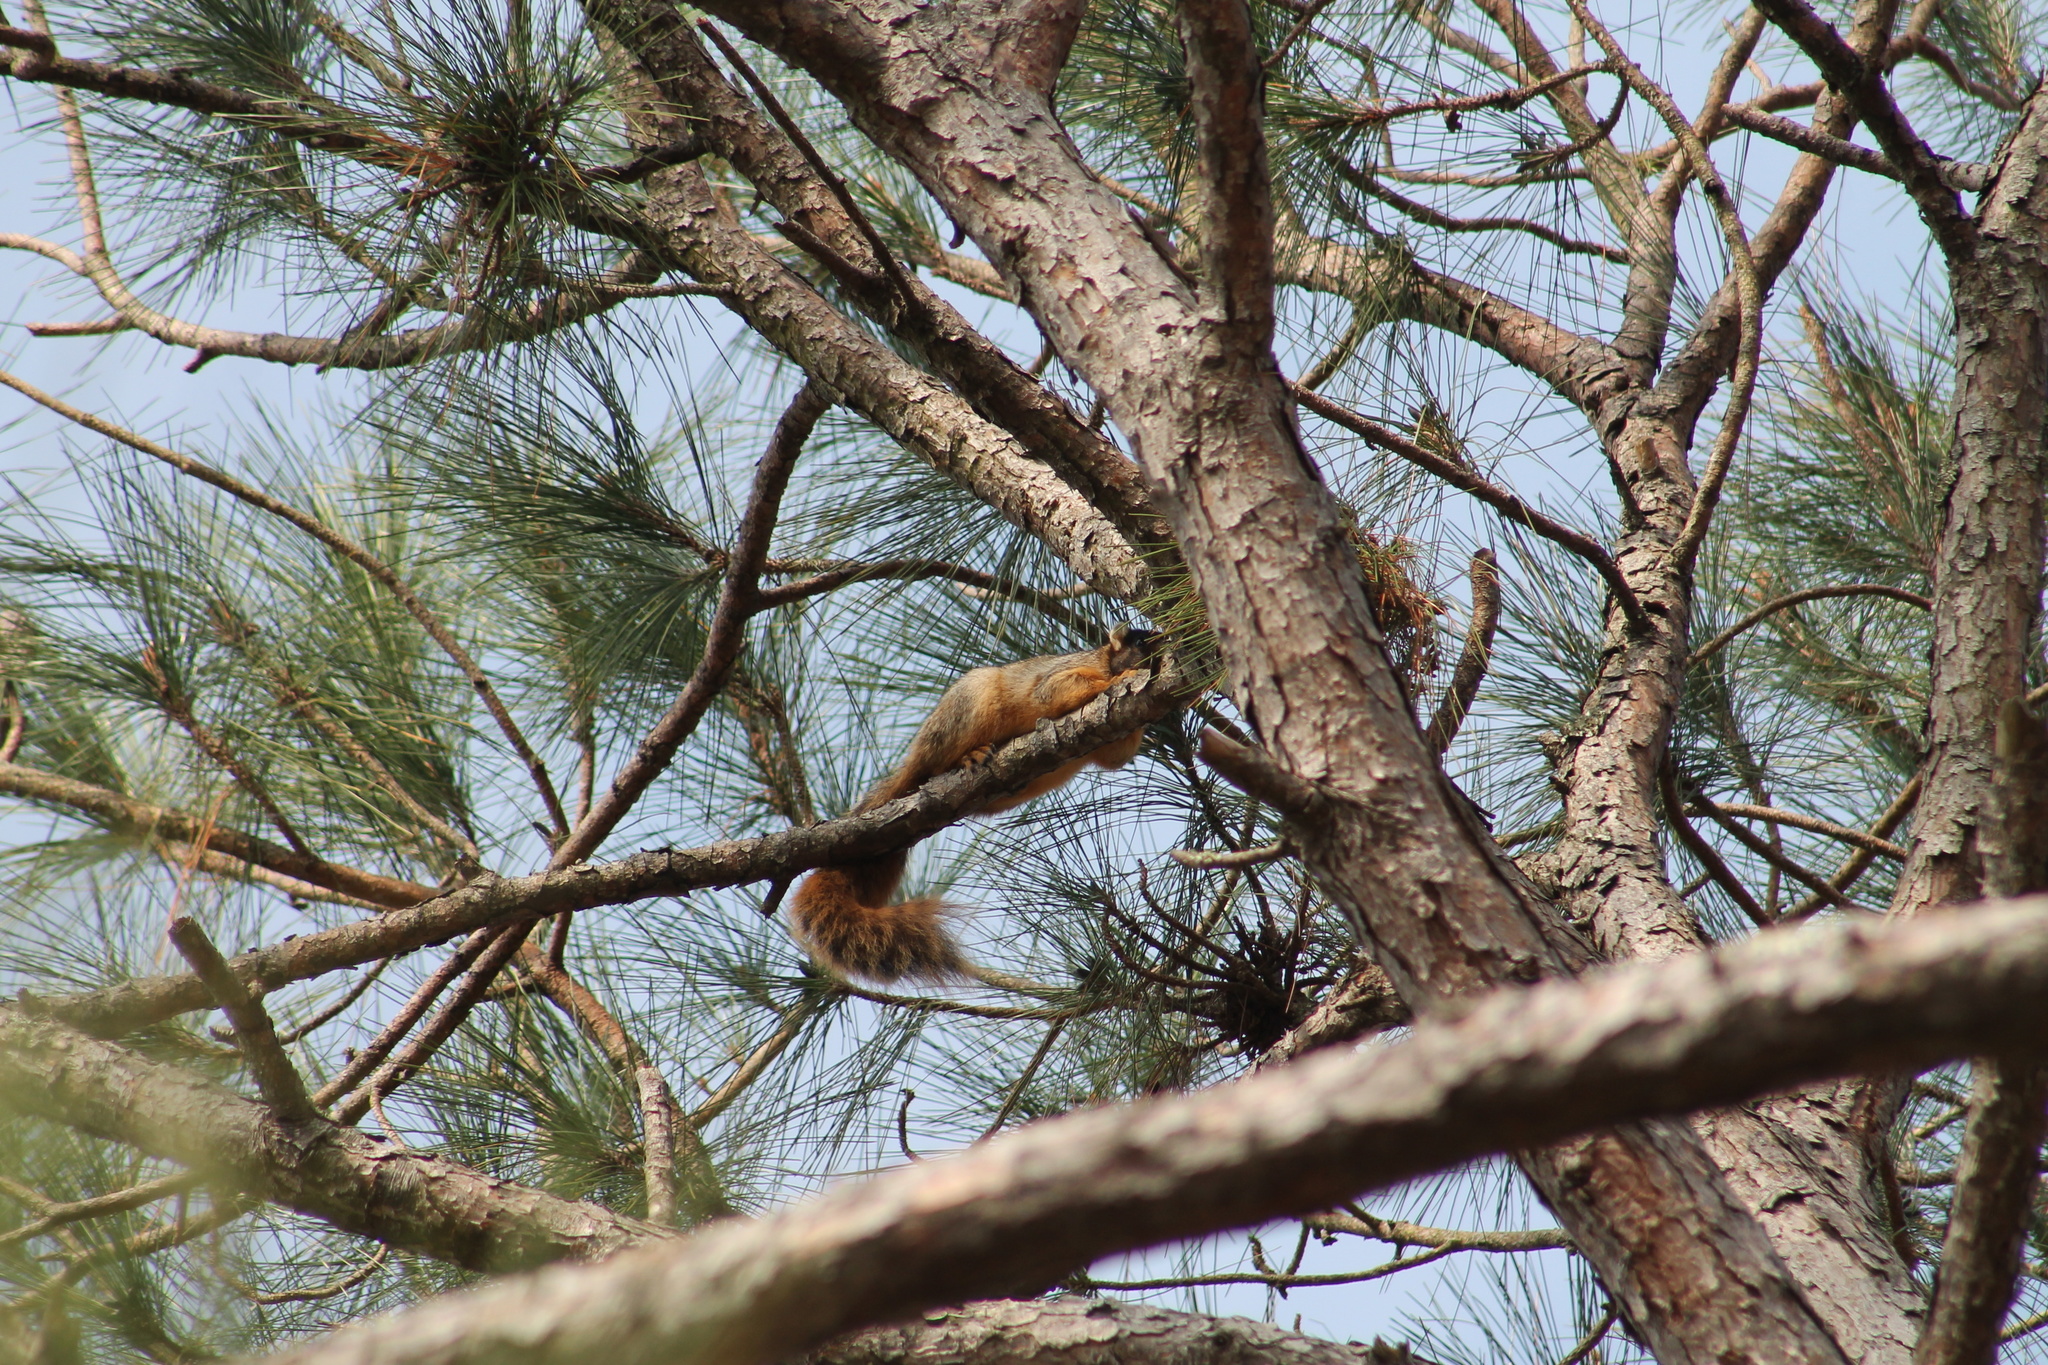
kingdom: Animalia
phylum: Chordata
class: Mammalia
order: Rodentia
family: Sciuridae
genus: Sciurus
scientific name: Sciurus niger
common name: Fox squirrel
